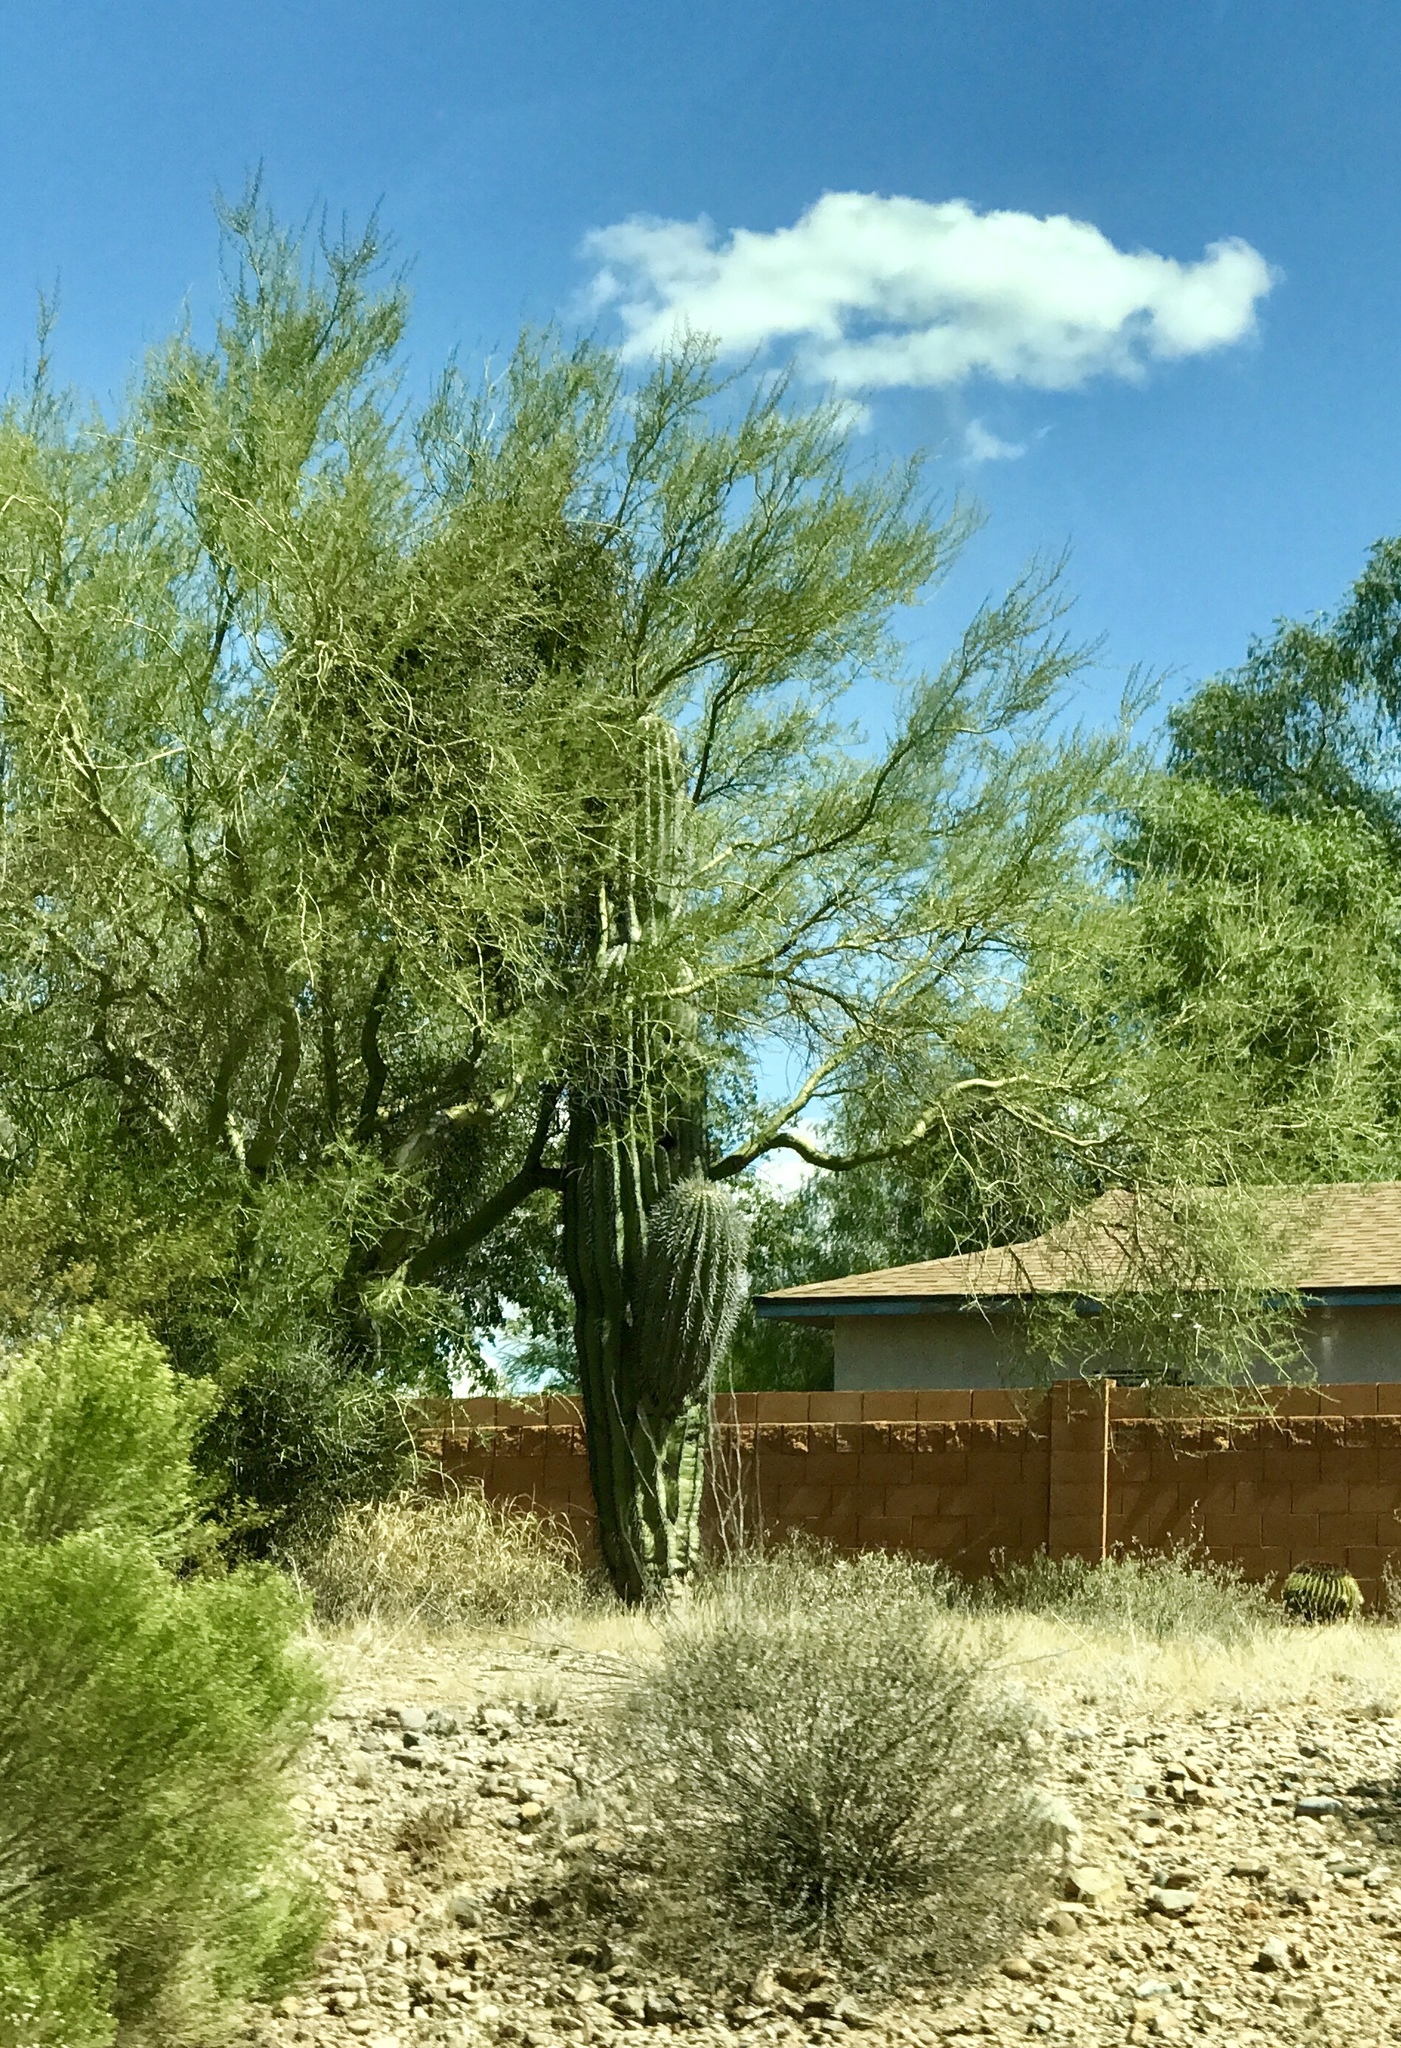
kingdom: Plantae
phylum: Tracheophyta
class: Magnoliopsida
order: Caryophyllales
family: Cactaceae
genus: Carnegiea
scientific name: Carnegiea gigantea
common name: Saguaro
